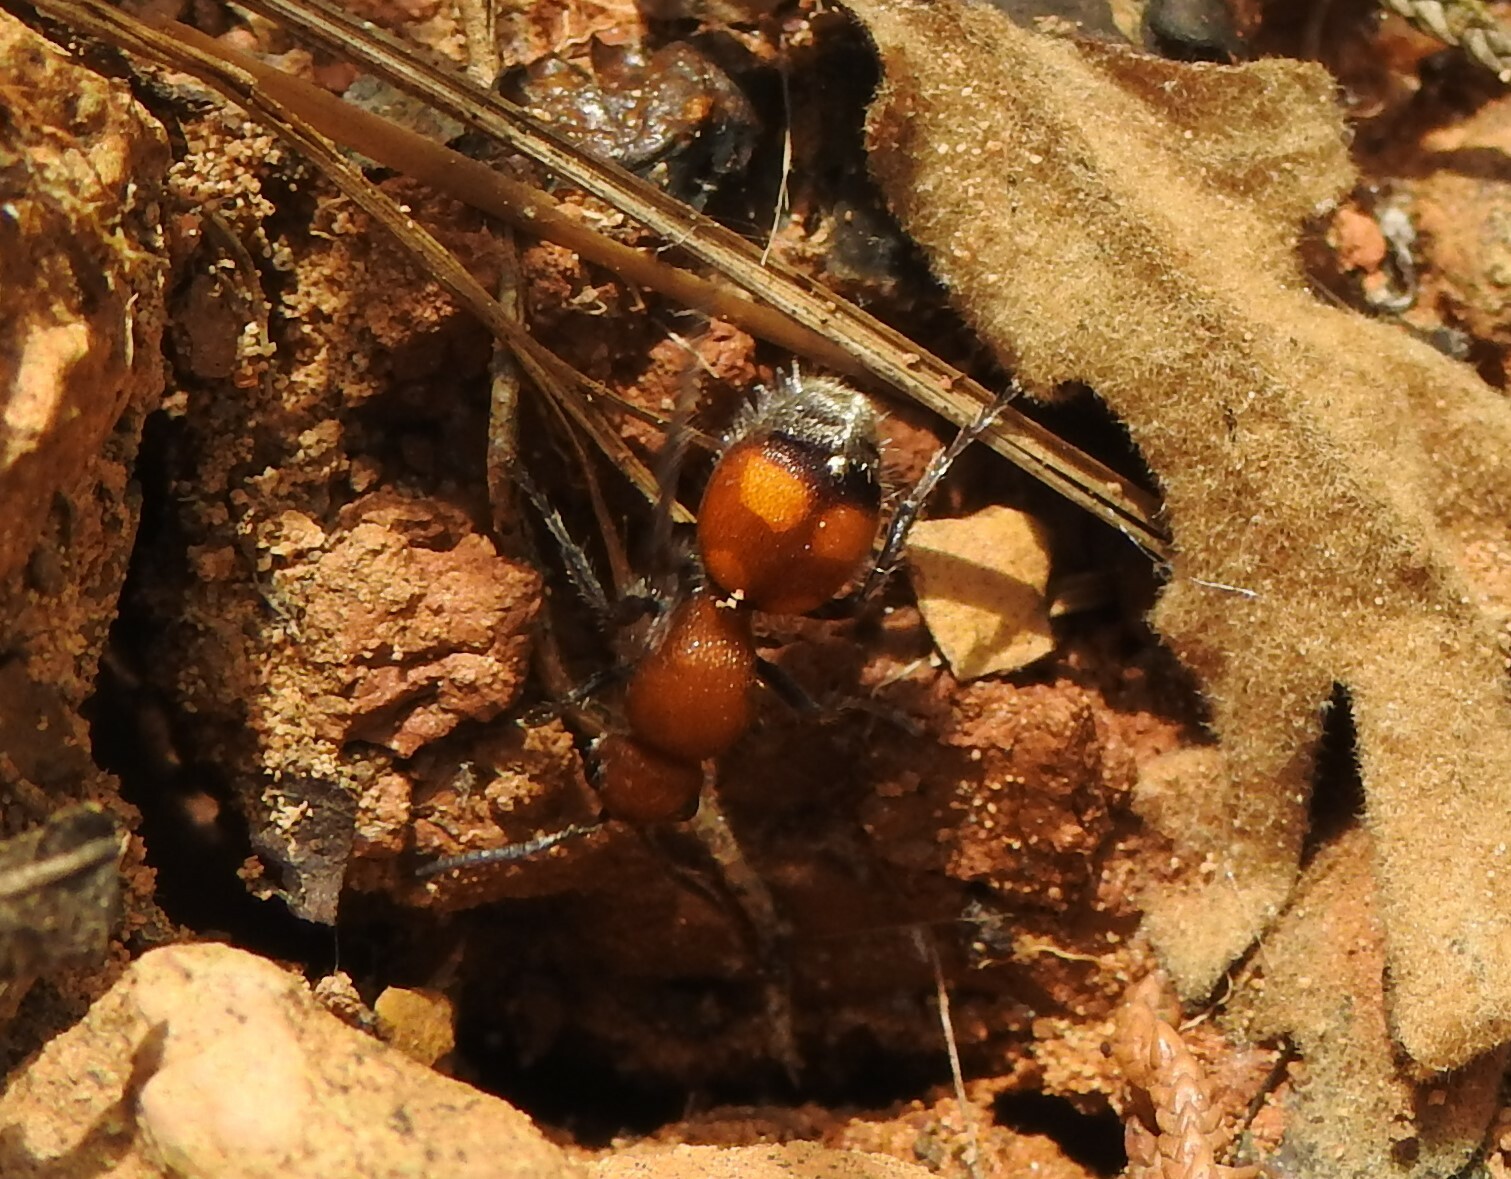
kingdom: Animalia
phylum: Arthropoda
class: Insecta
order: Hymenoptera
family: Mutillidae
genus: Dasymutilla
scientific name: Dasymutilla
